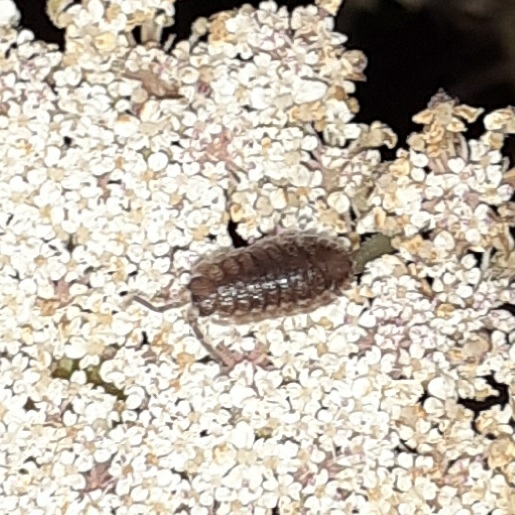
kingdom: Animalia
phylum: Arthropoda
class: Malacostraca
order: Isopoda
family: Porcellionidae
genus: Porcellio
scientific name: Porcellio scaber
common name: Common rough woodlouse
